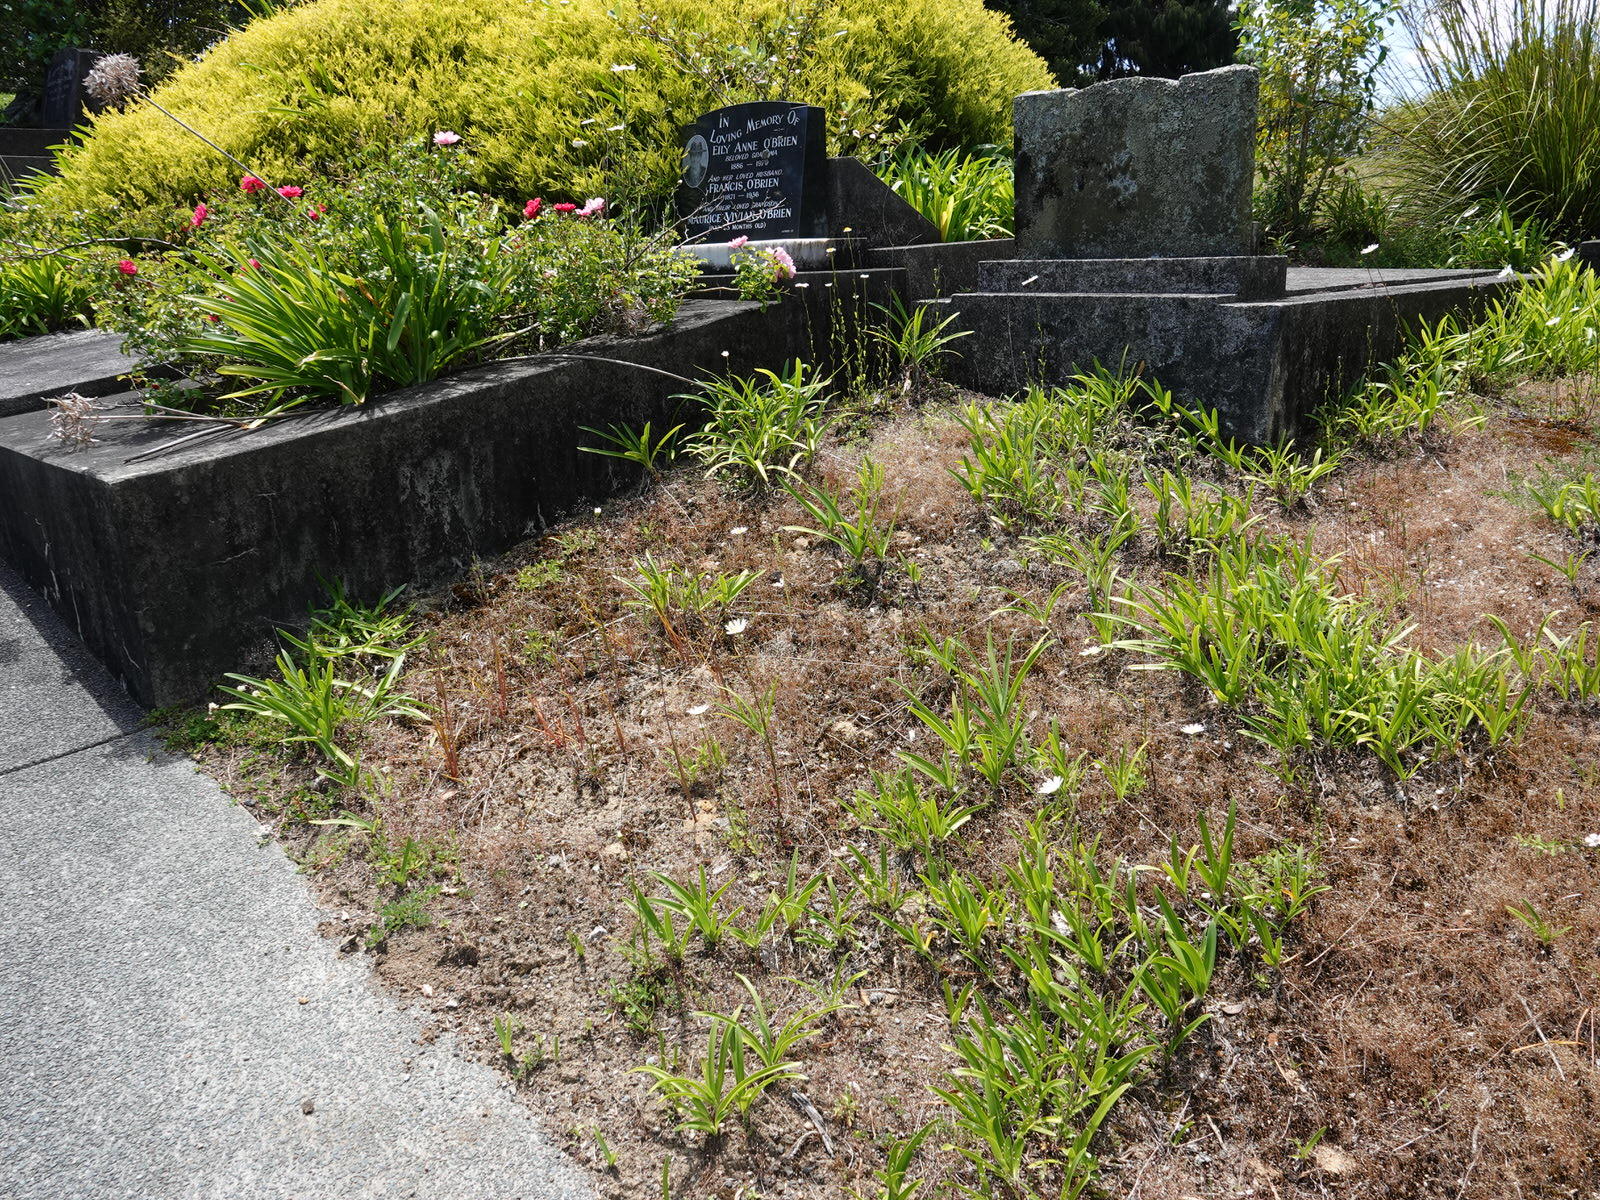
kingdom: Plantae
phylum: Tracheophyta
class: Liliopsida
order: Asparagales
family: Orchidaceae
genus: Thelymitra
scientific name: Thelymitra pauciflora
